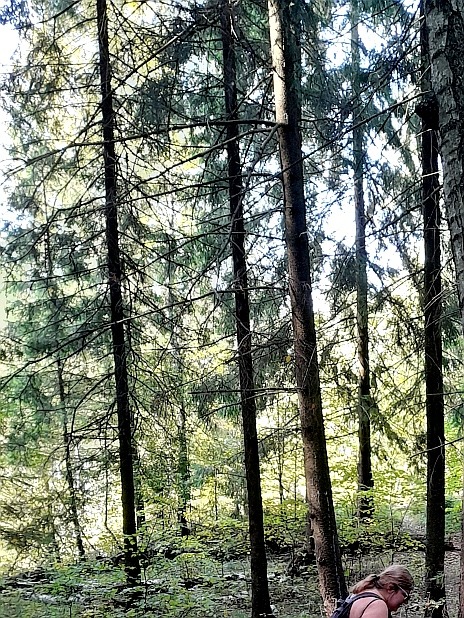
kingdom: Plantae
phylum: Tracheophyta
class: Pinopsida
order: Pinales
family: Pinaceae
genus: Picea
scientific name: Picea abies
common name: Norway spruce
